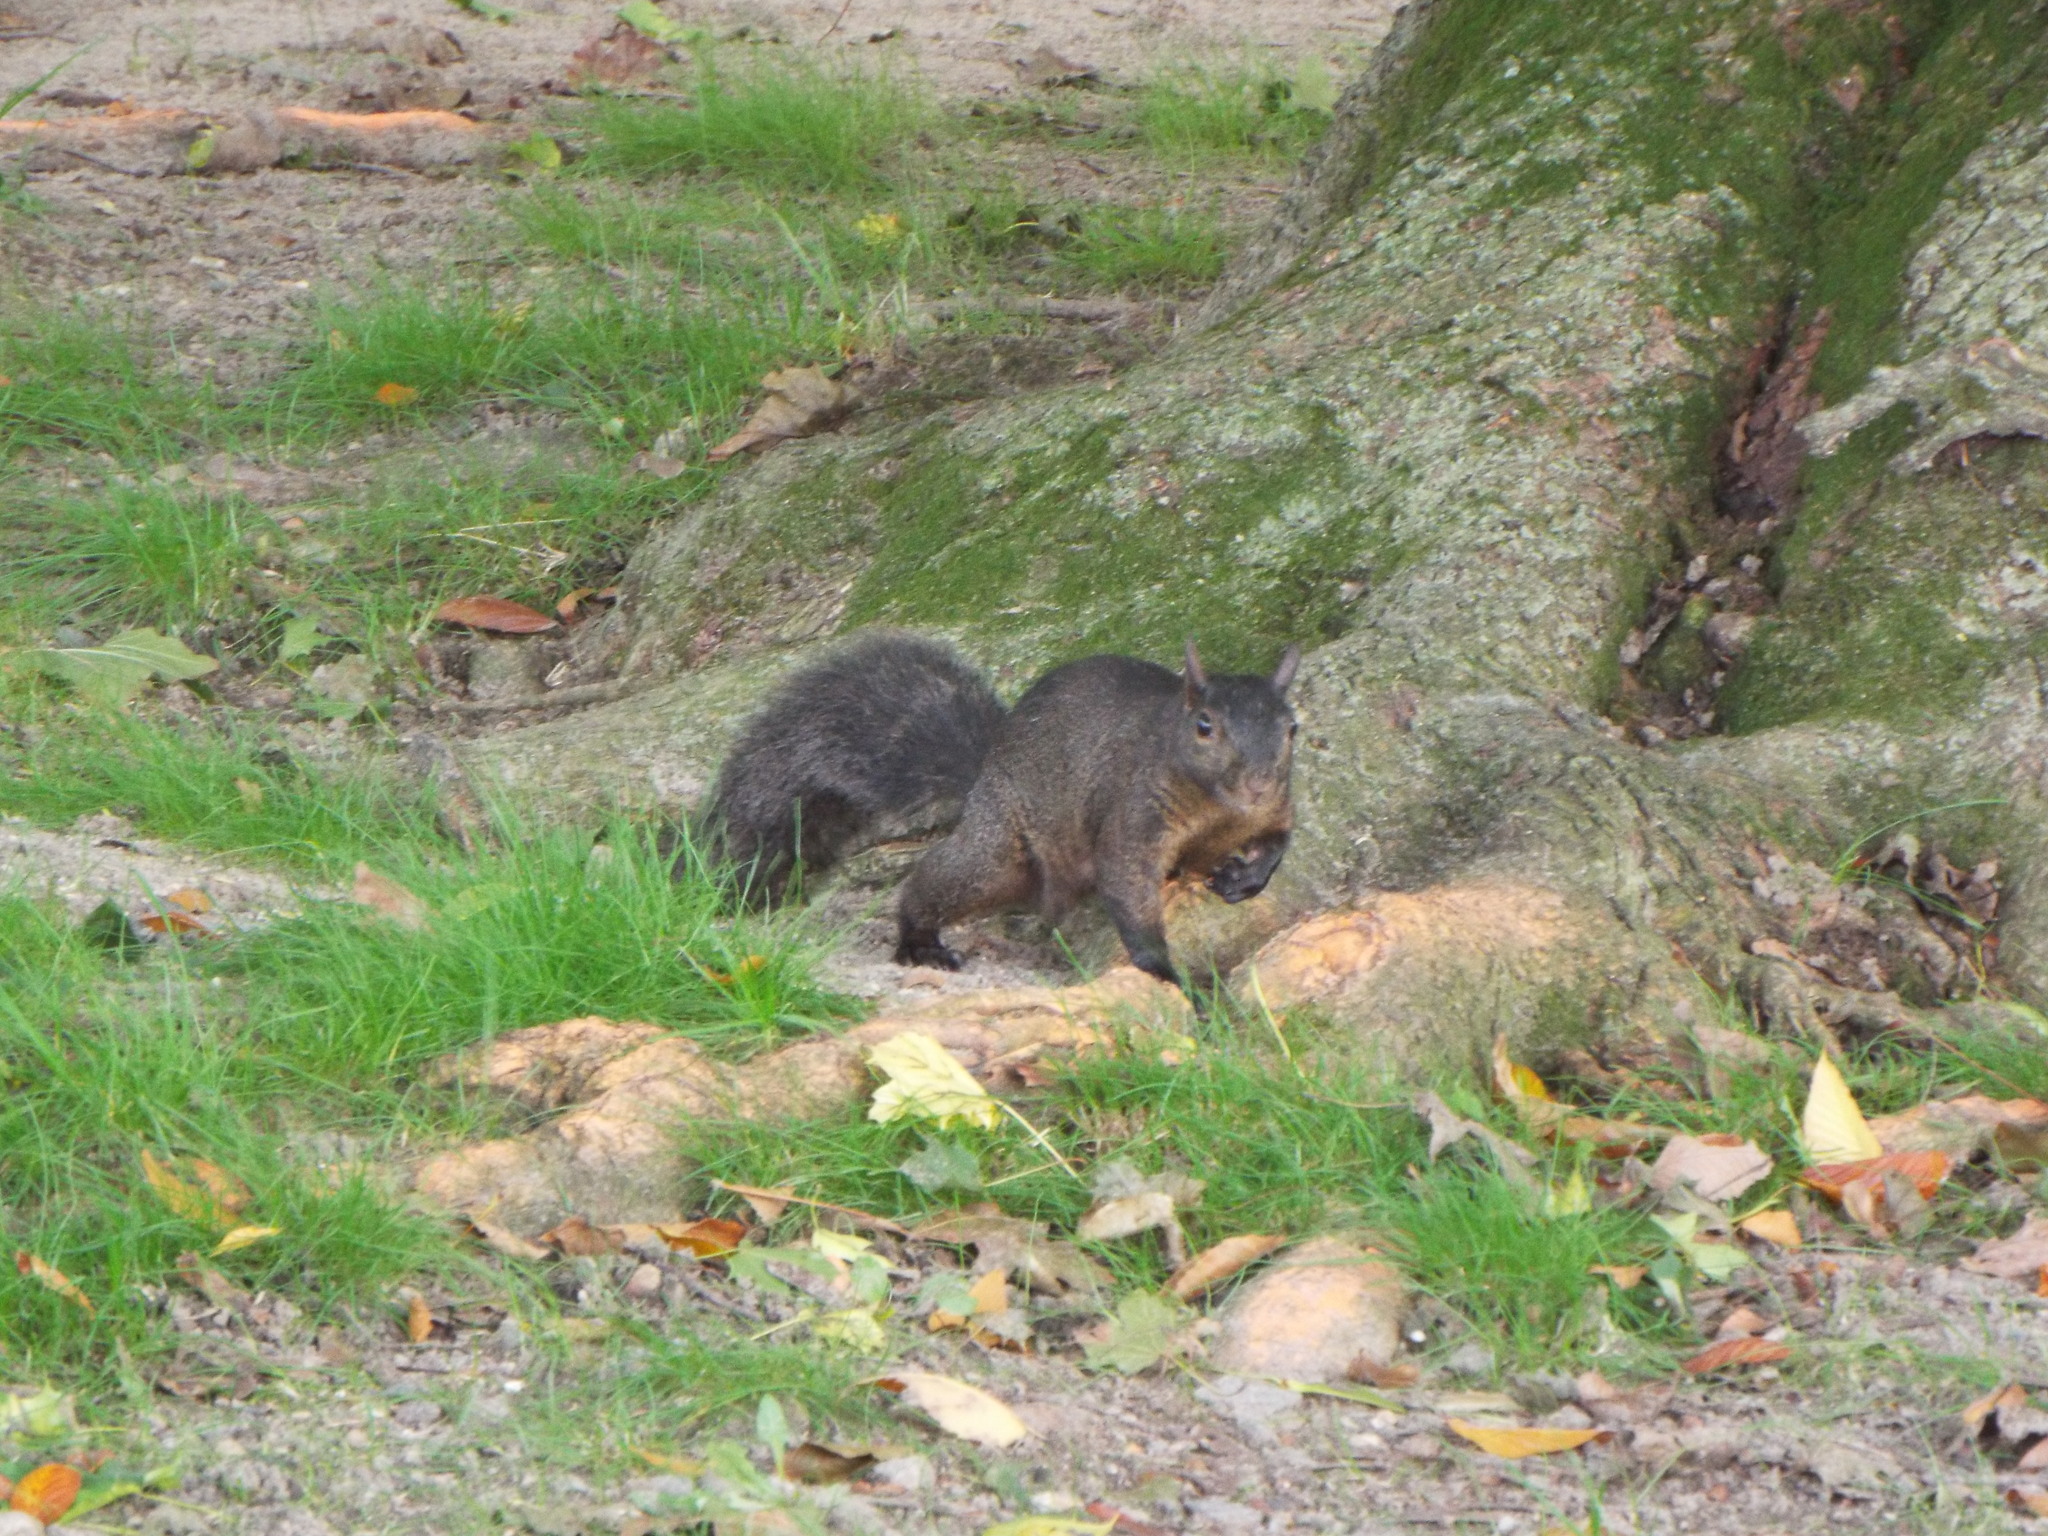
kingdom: Animalia
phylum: Chordata
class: Mammalia
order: Rodentia
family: Sciuridae
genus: Sciurus
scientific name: Sciurus carolinensis
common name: Eastern gray squirrel
